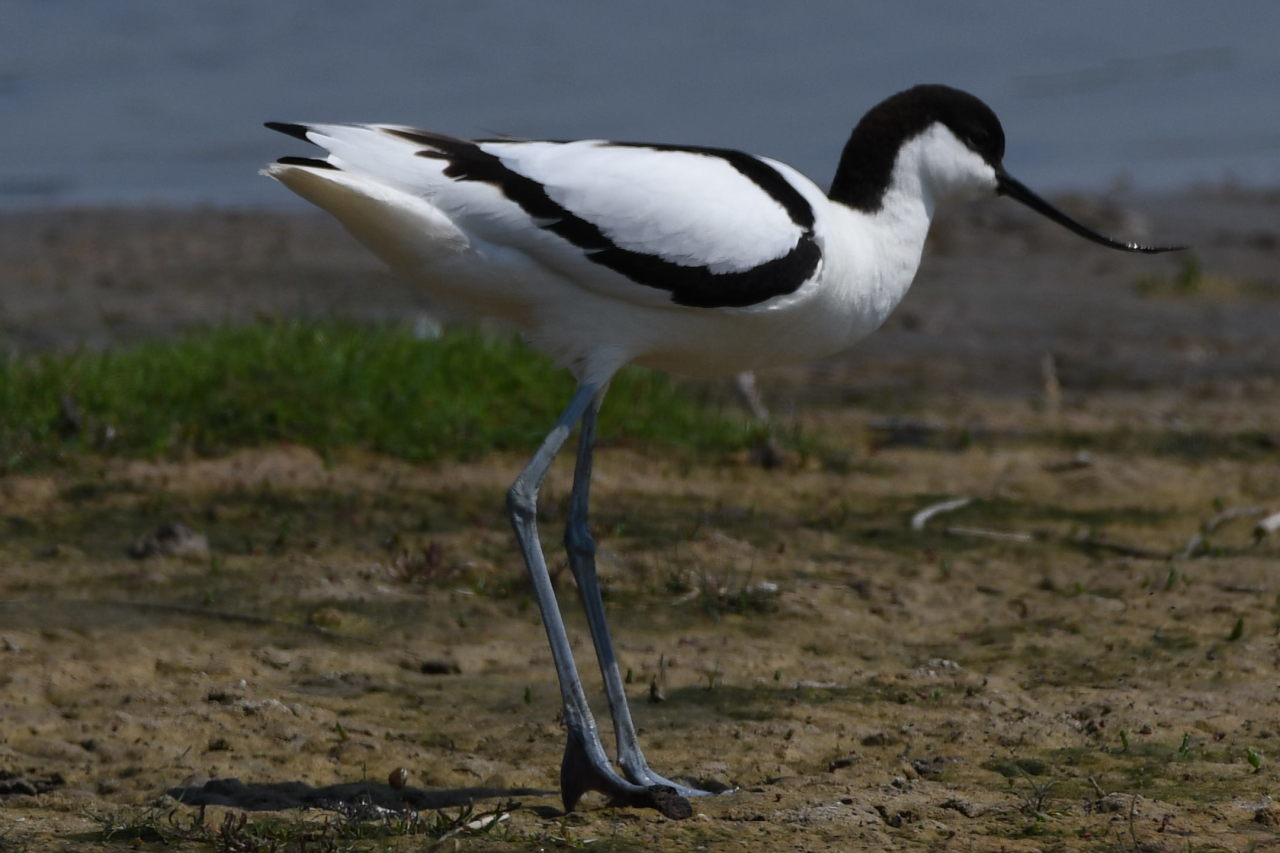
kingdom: Animalia
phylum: Chordata
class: Aves
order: Charadriiformes
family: Recurvirostridae
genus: Recurvirostra
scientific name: Recurvirostra avosetta
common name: Pied avocet
